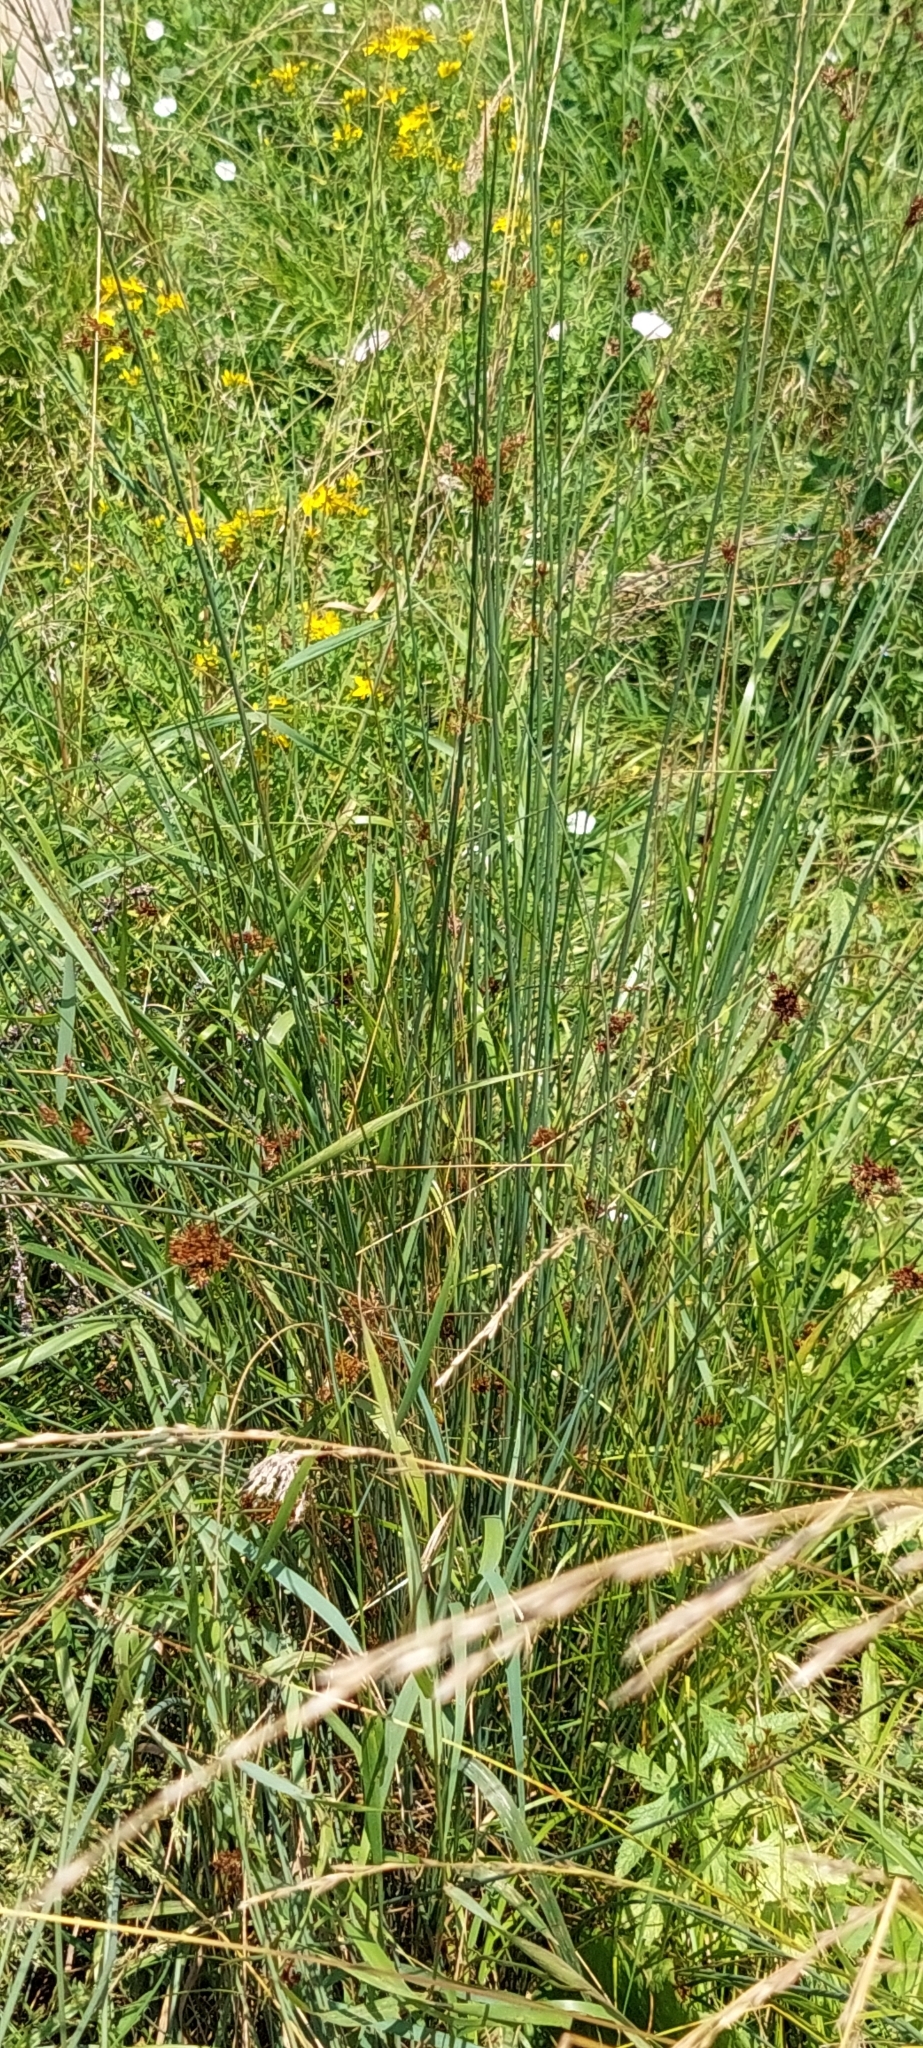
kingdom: Plantae
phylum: Tracheophyta
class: Liliopsida
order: Poales
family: Juncaceae
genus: Juncus
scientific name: Juncus inflexus
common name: Hard rush
